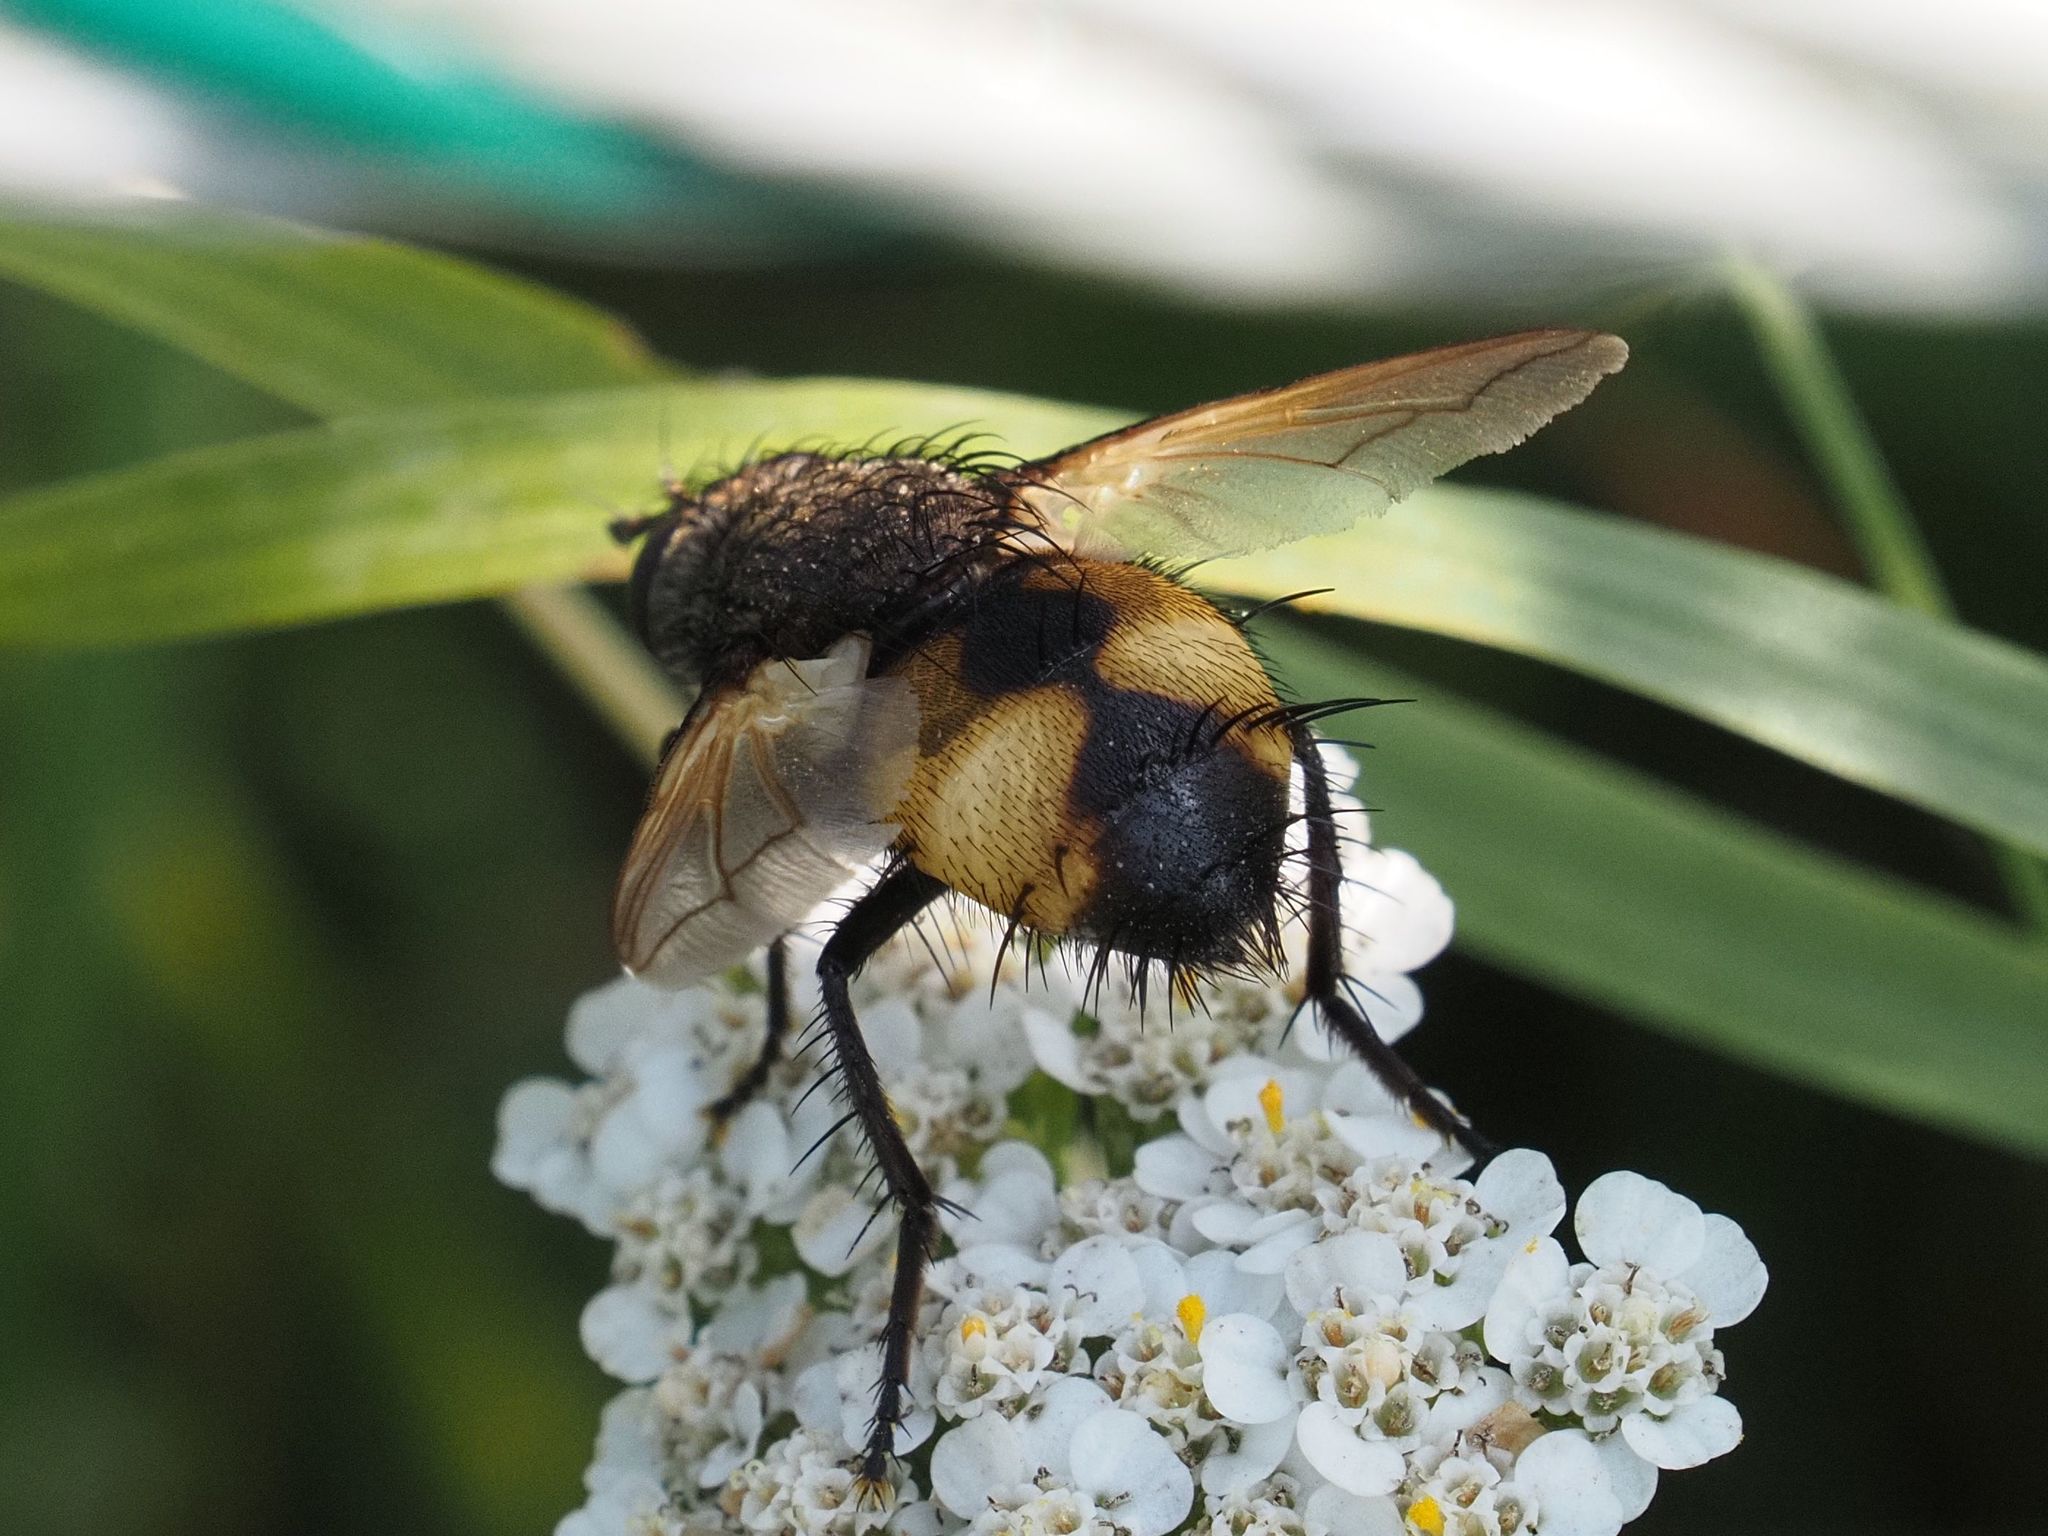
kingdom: Animalia
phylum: Arthropoda
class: Insecta
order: Diptera
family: Tachinidae
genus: Nowickia
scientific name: Nowickia ferox
